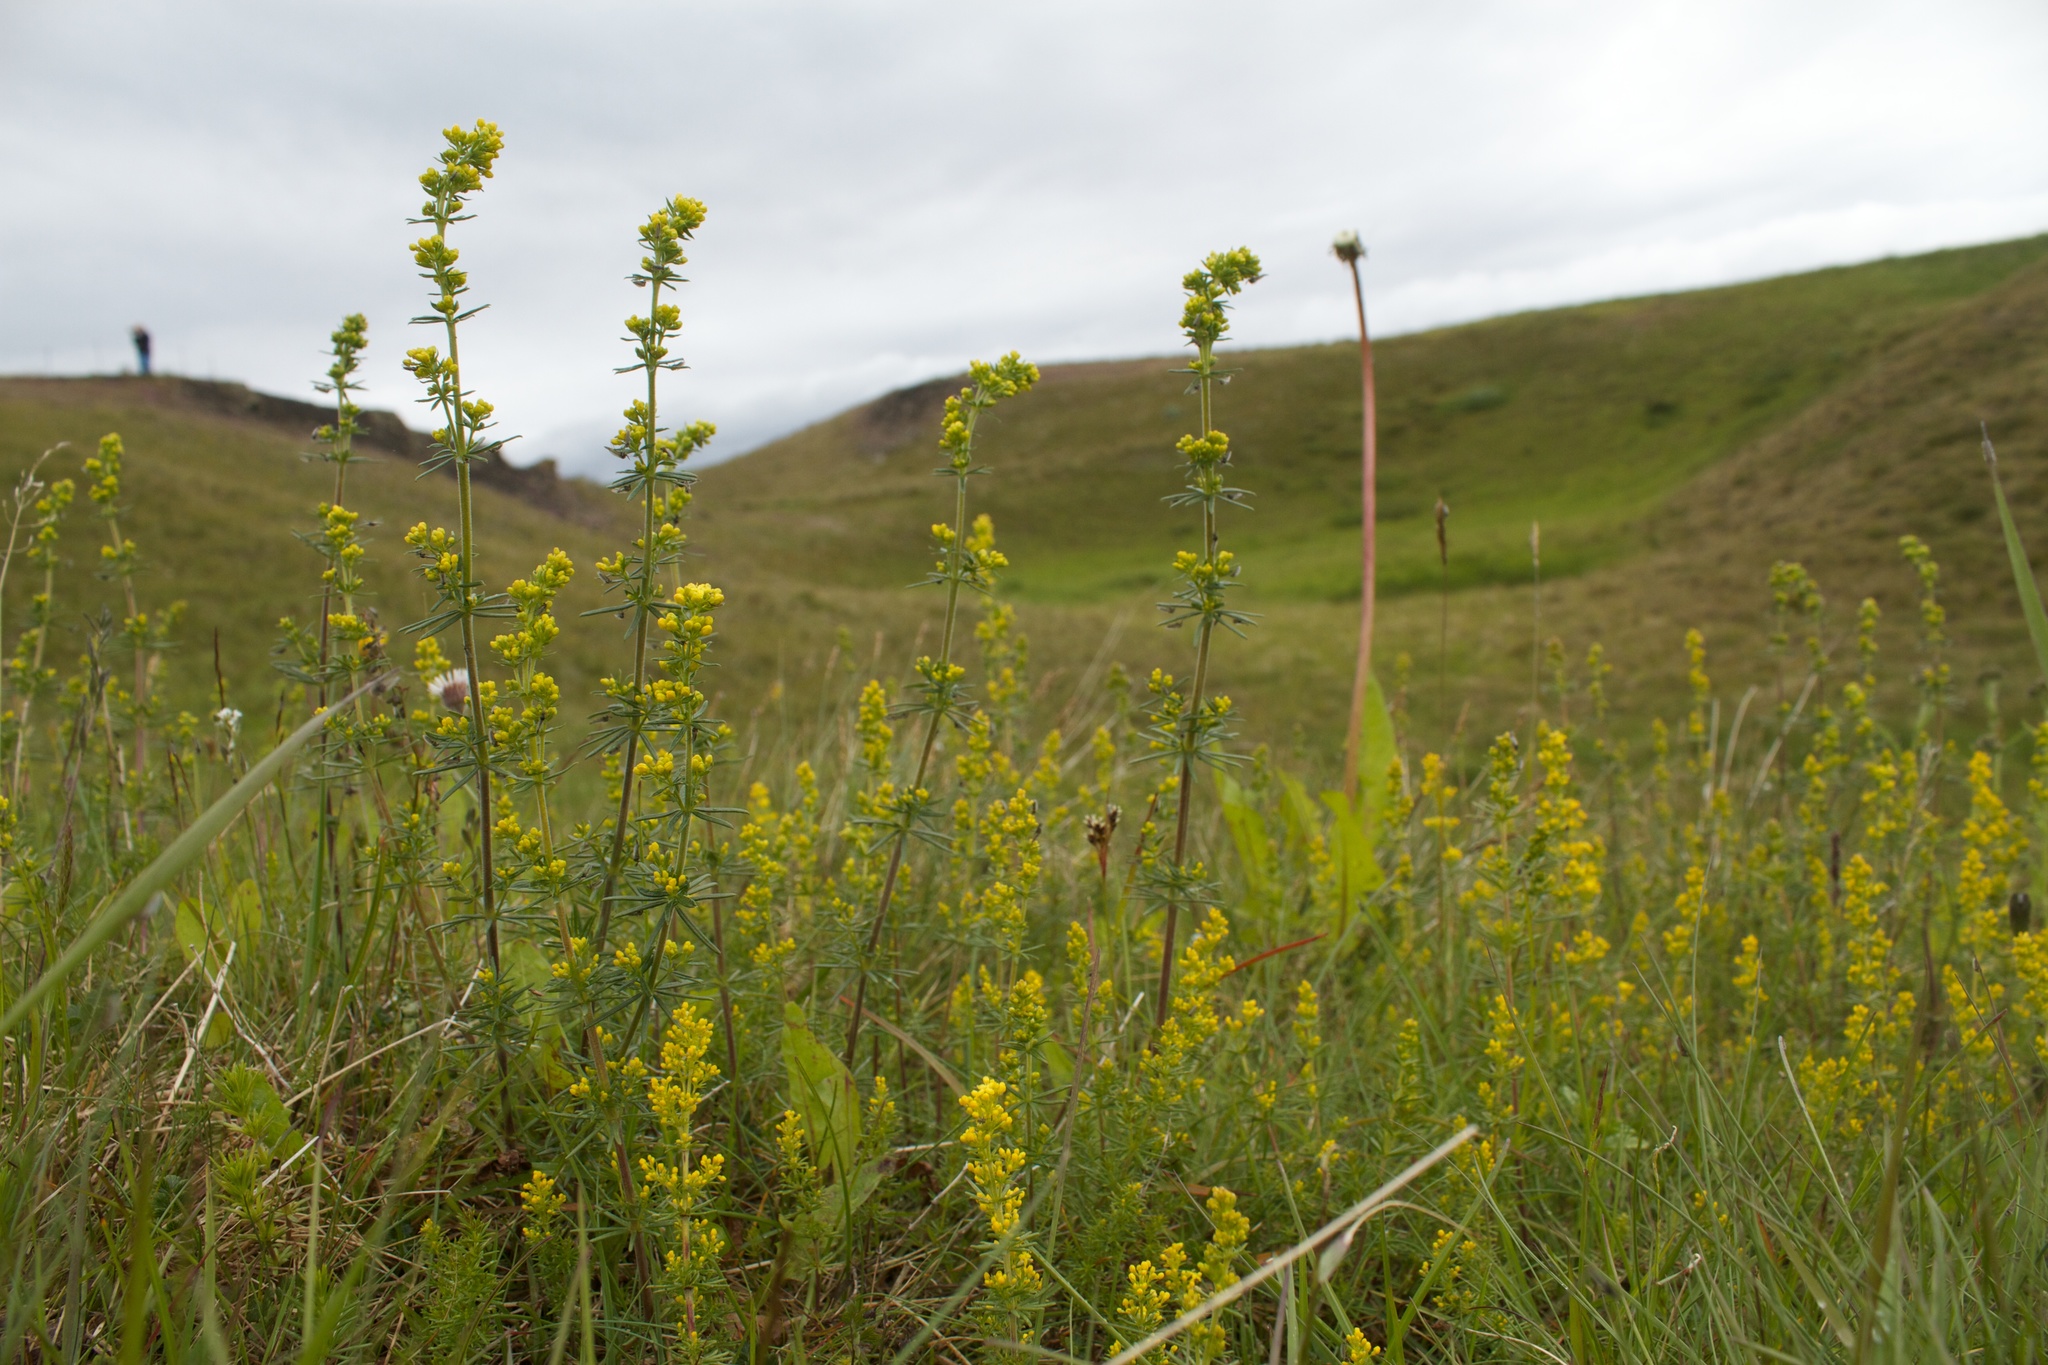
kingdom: Plantae
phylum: Tracheophyta
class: Magnoliopsida
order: Gentianales
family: Rubiaceae
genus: Galium
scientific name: Galium verum
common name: Lady's bedstraw
